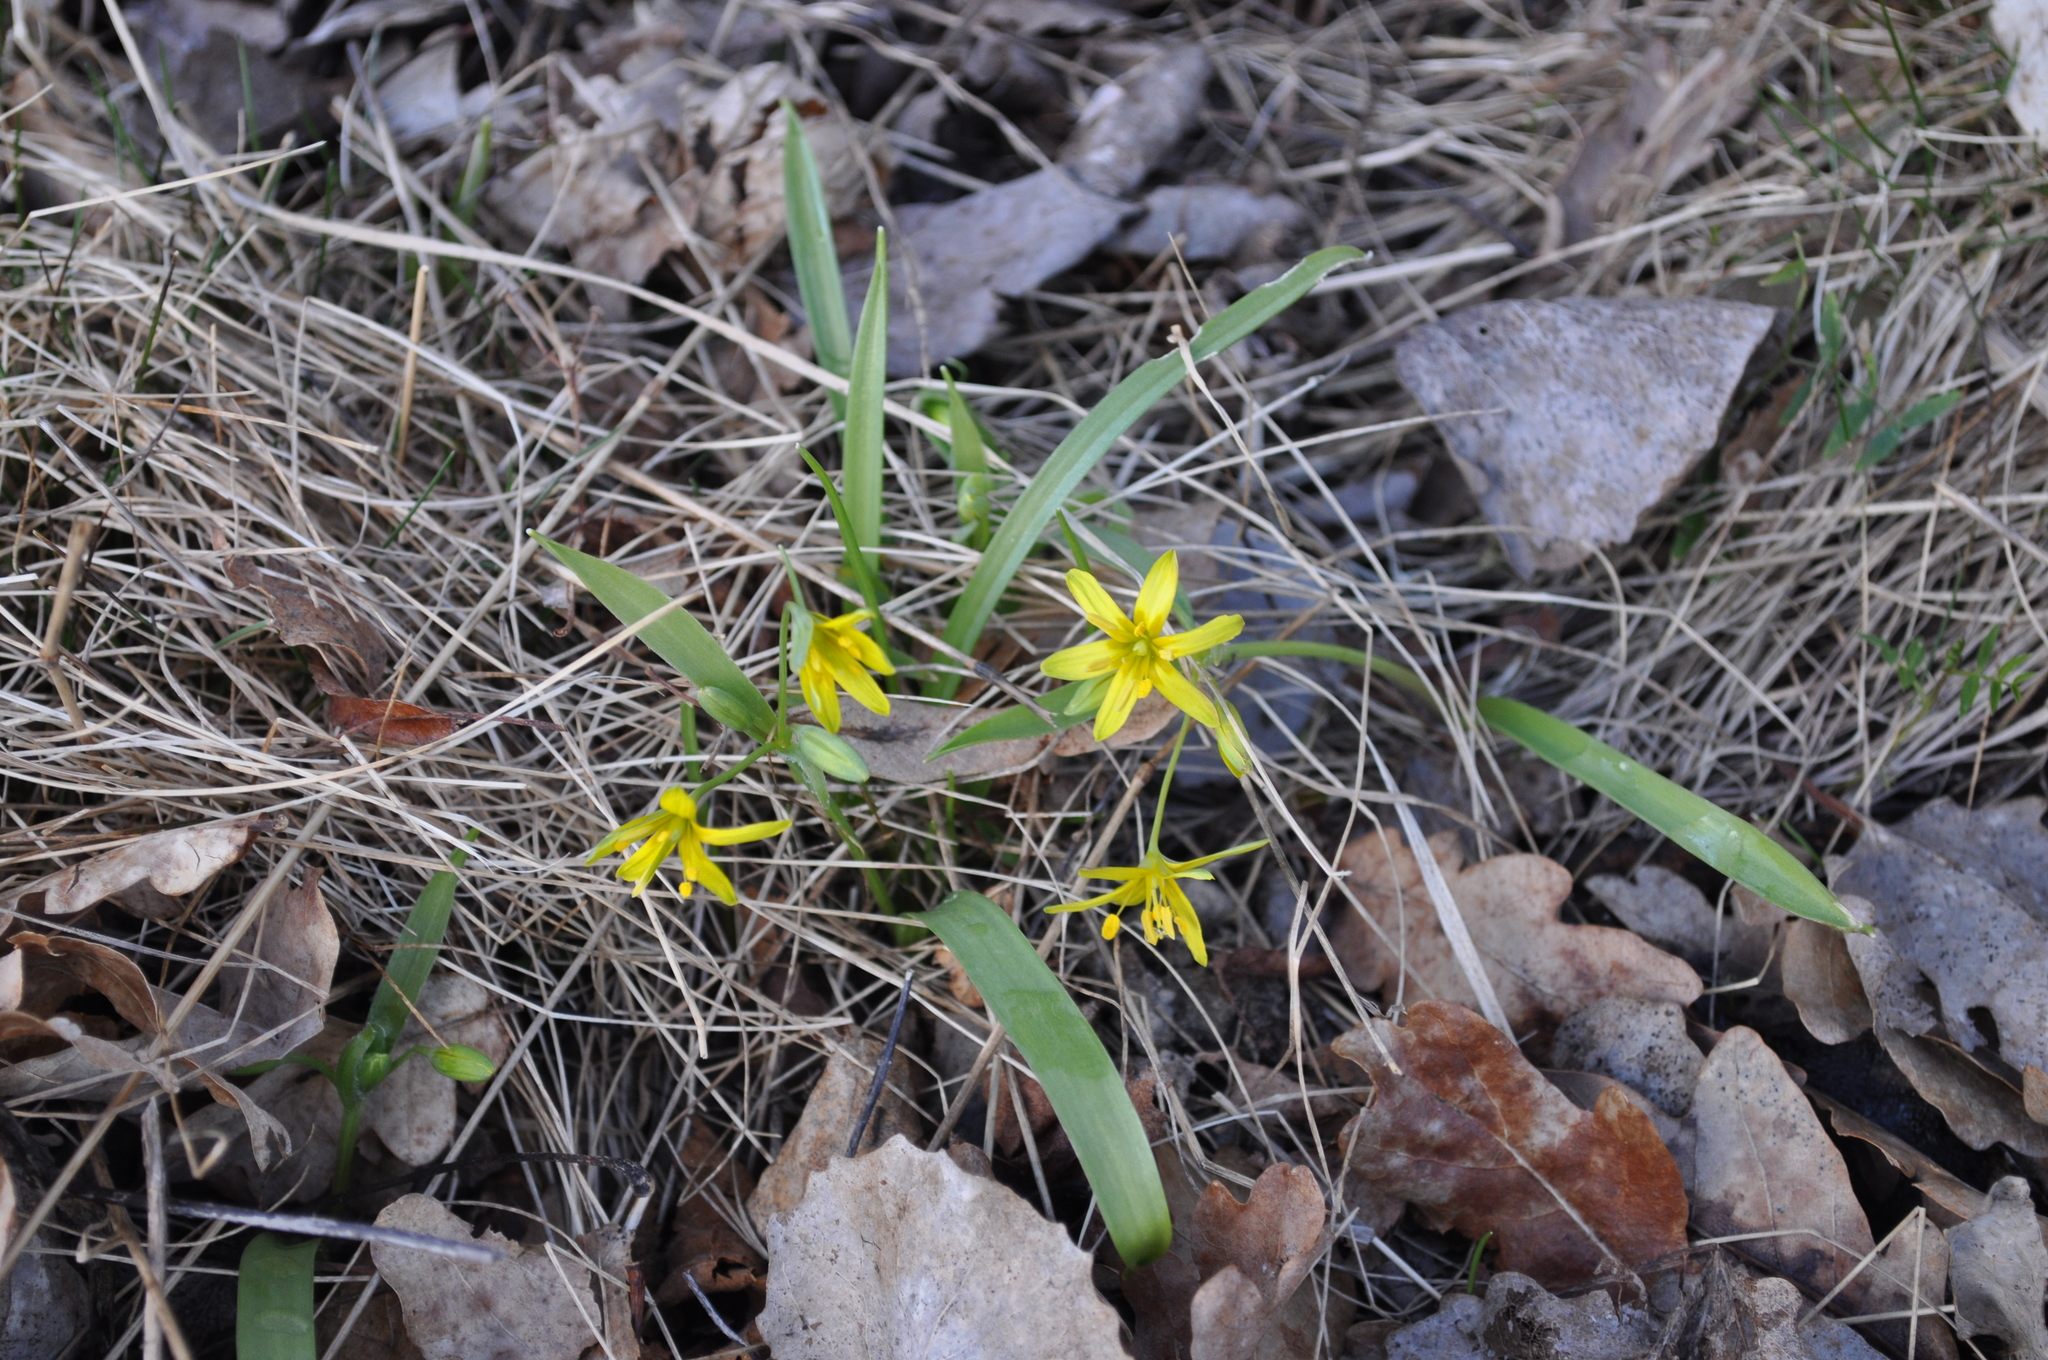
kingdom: Plantae
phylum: Tracheophyta
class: Liliopsida
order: Liliales
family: Liliaceae
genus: Gagea
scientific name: Gagea lutea
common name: Yellow star-of-bethlehem
